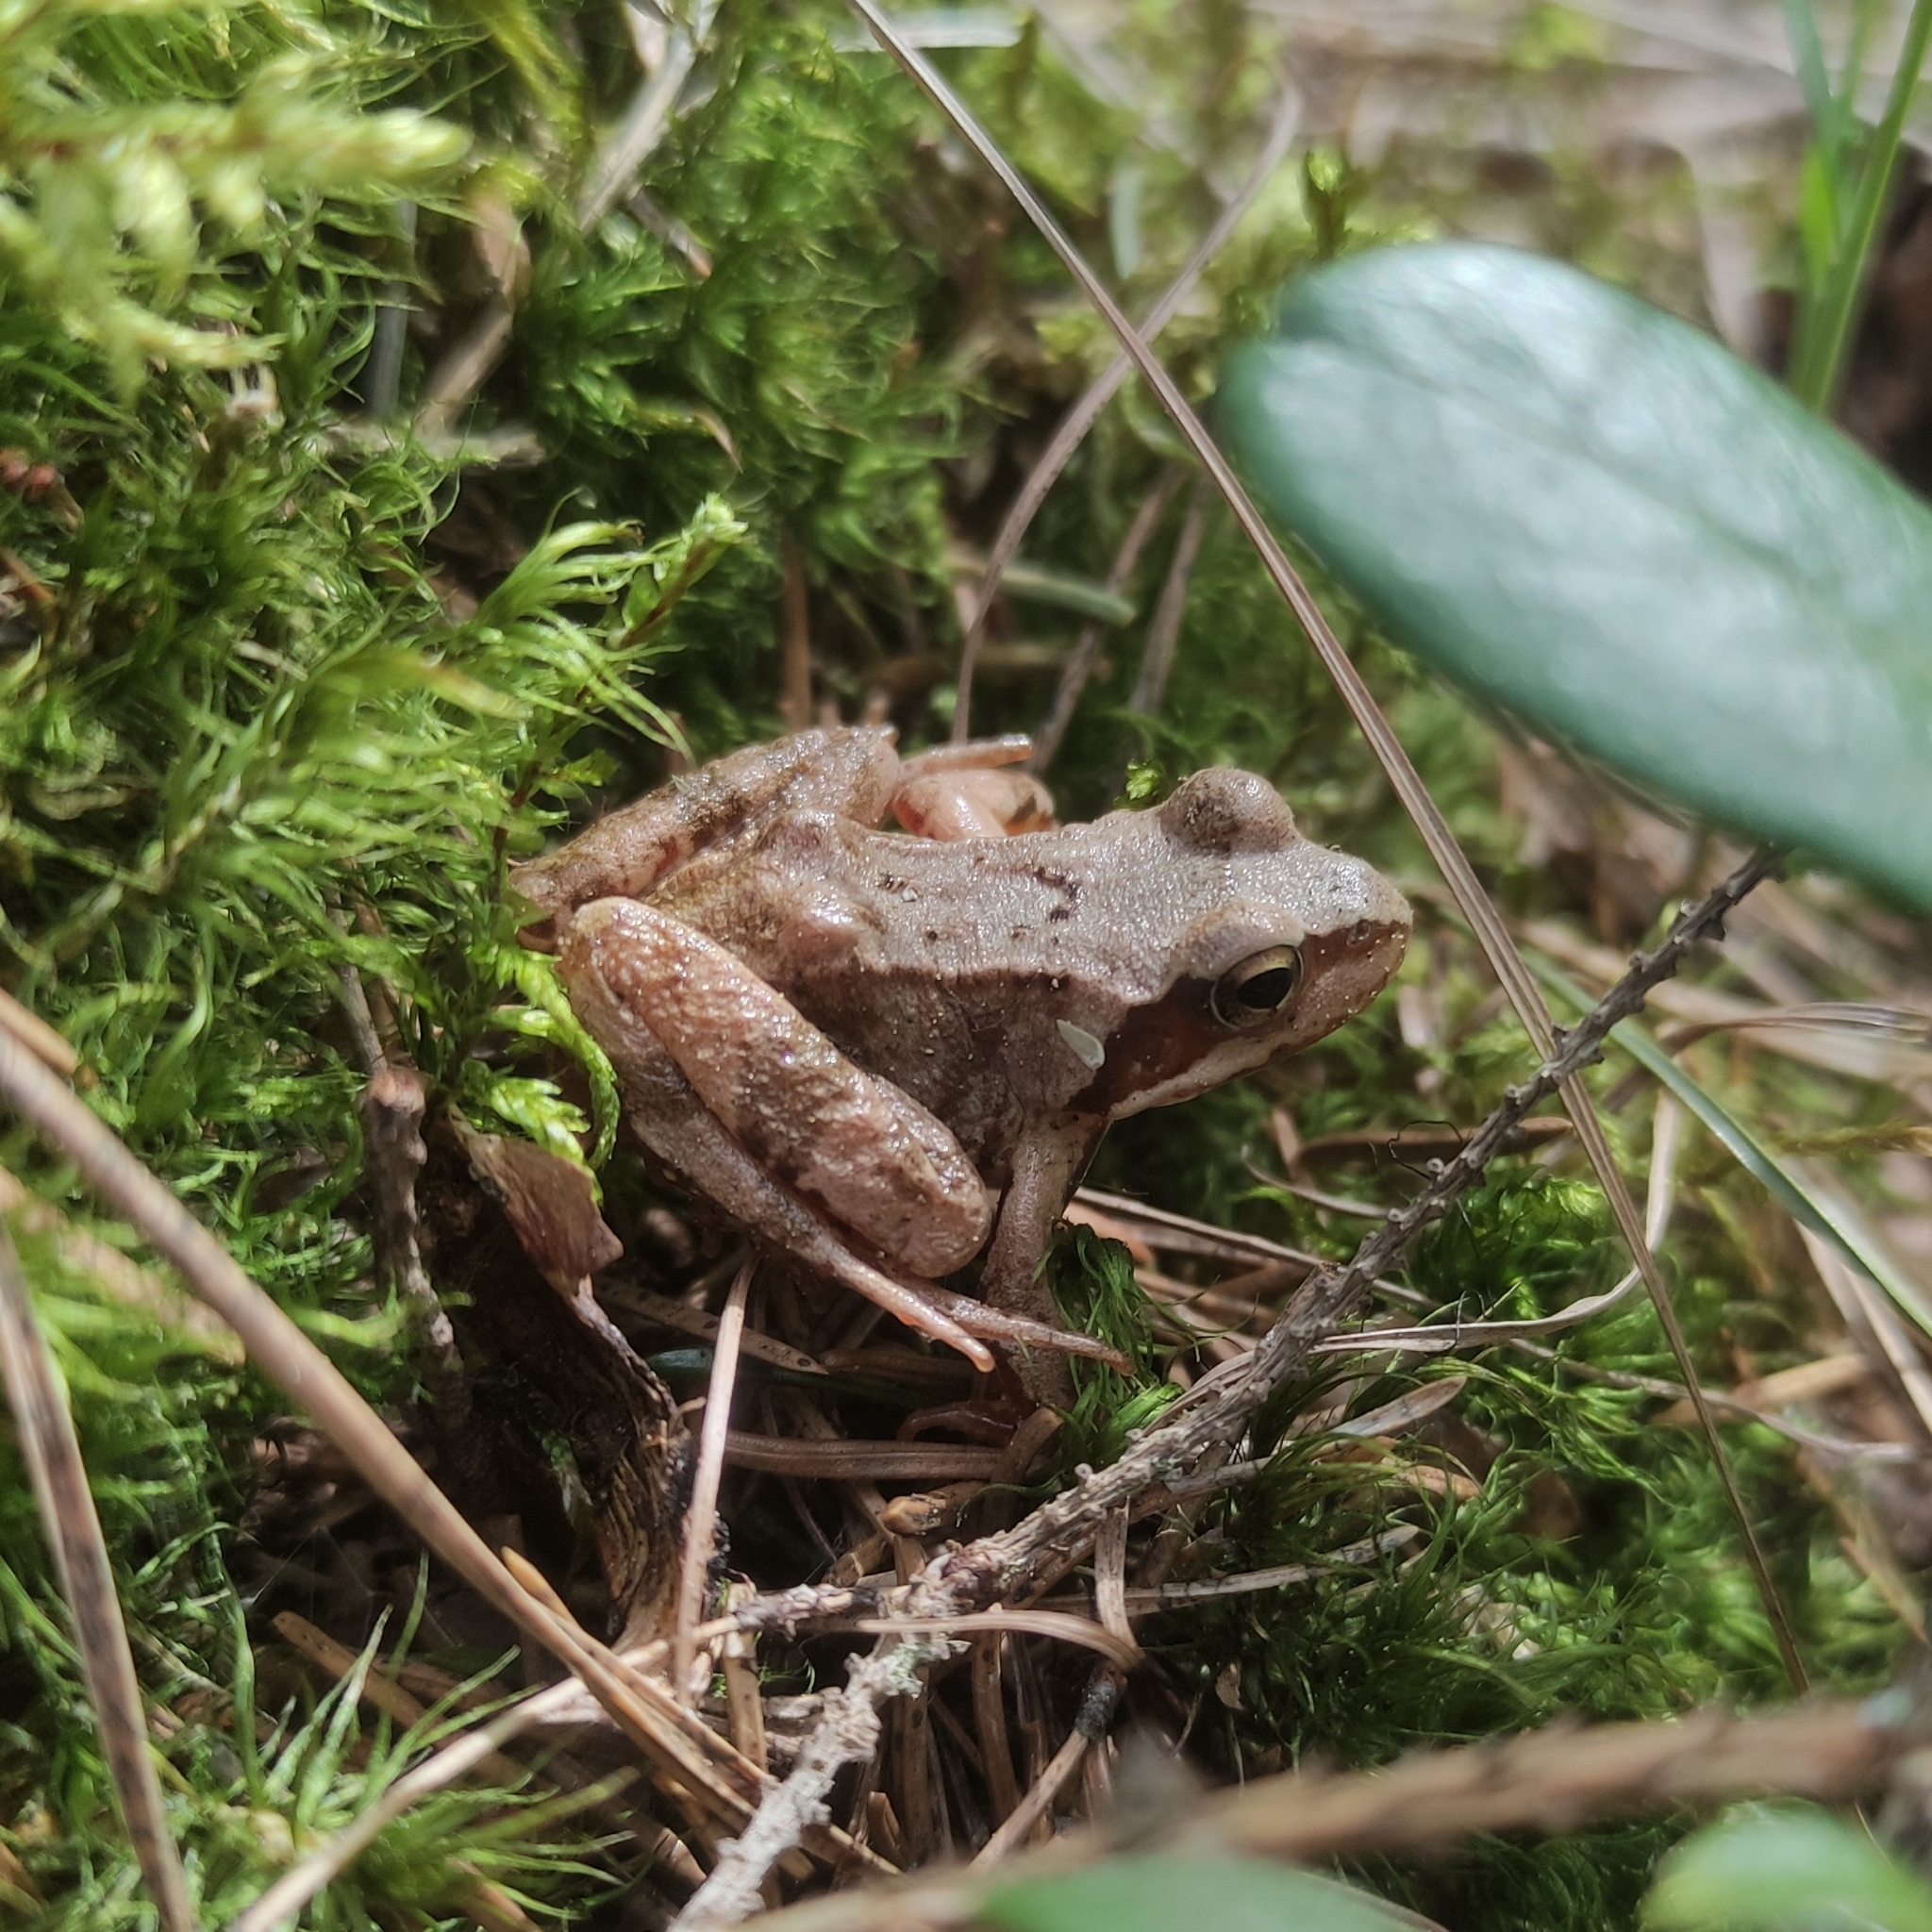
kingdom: Animalia
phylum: Chordata
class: Amphibia
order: Anura
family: Ranidae
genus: Rana
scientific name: Rana temporaria
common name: Common frog
